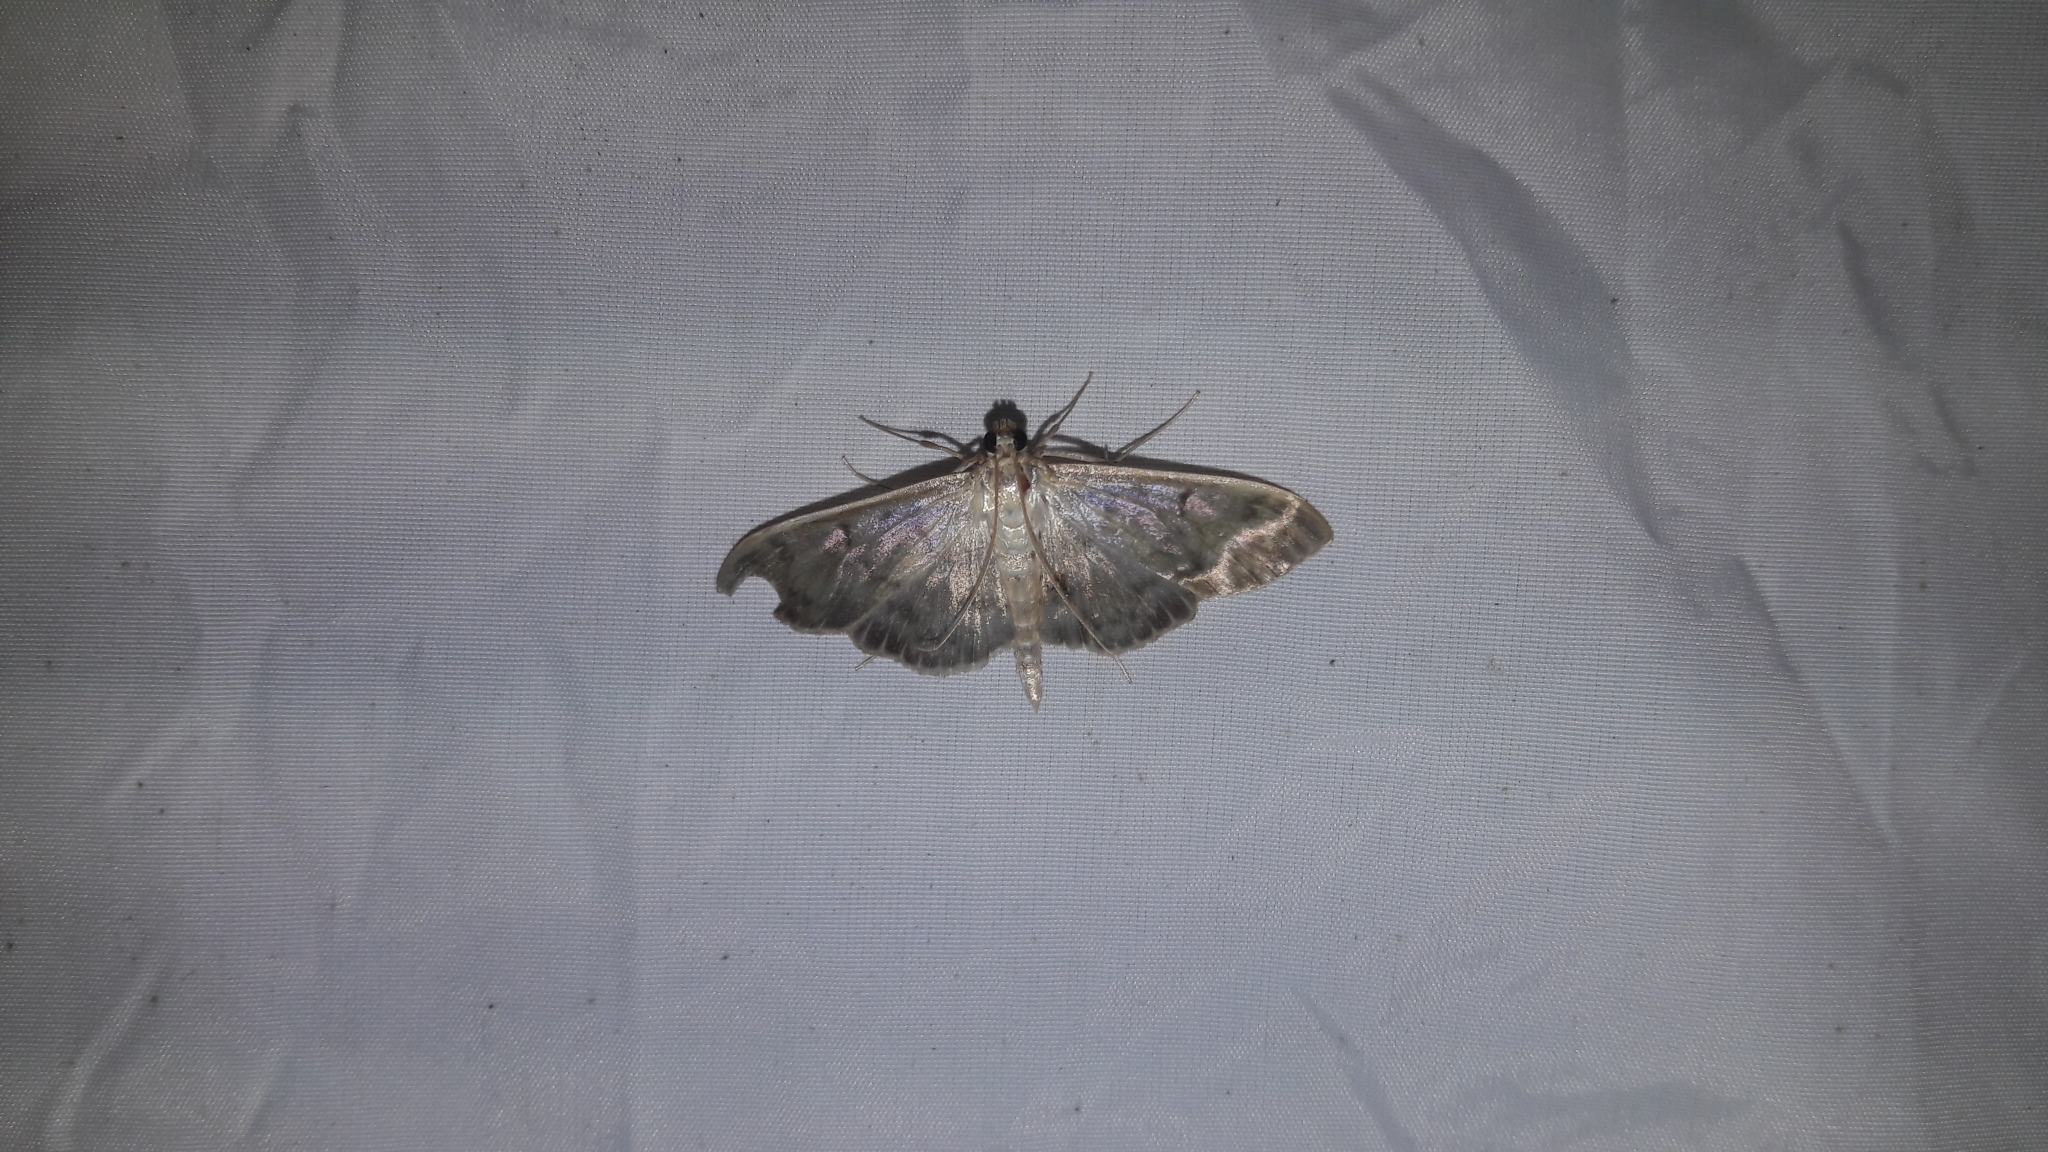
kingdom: Animalia
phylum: Arthropoda
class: Insecta
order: Lepidoptera
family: Crambidae
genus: Patania
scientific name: Patania ruralis
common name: Mother of pearl
